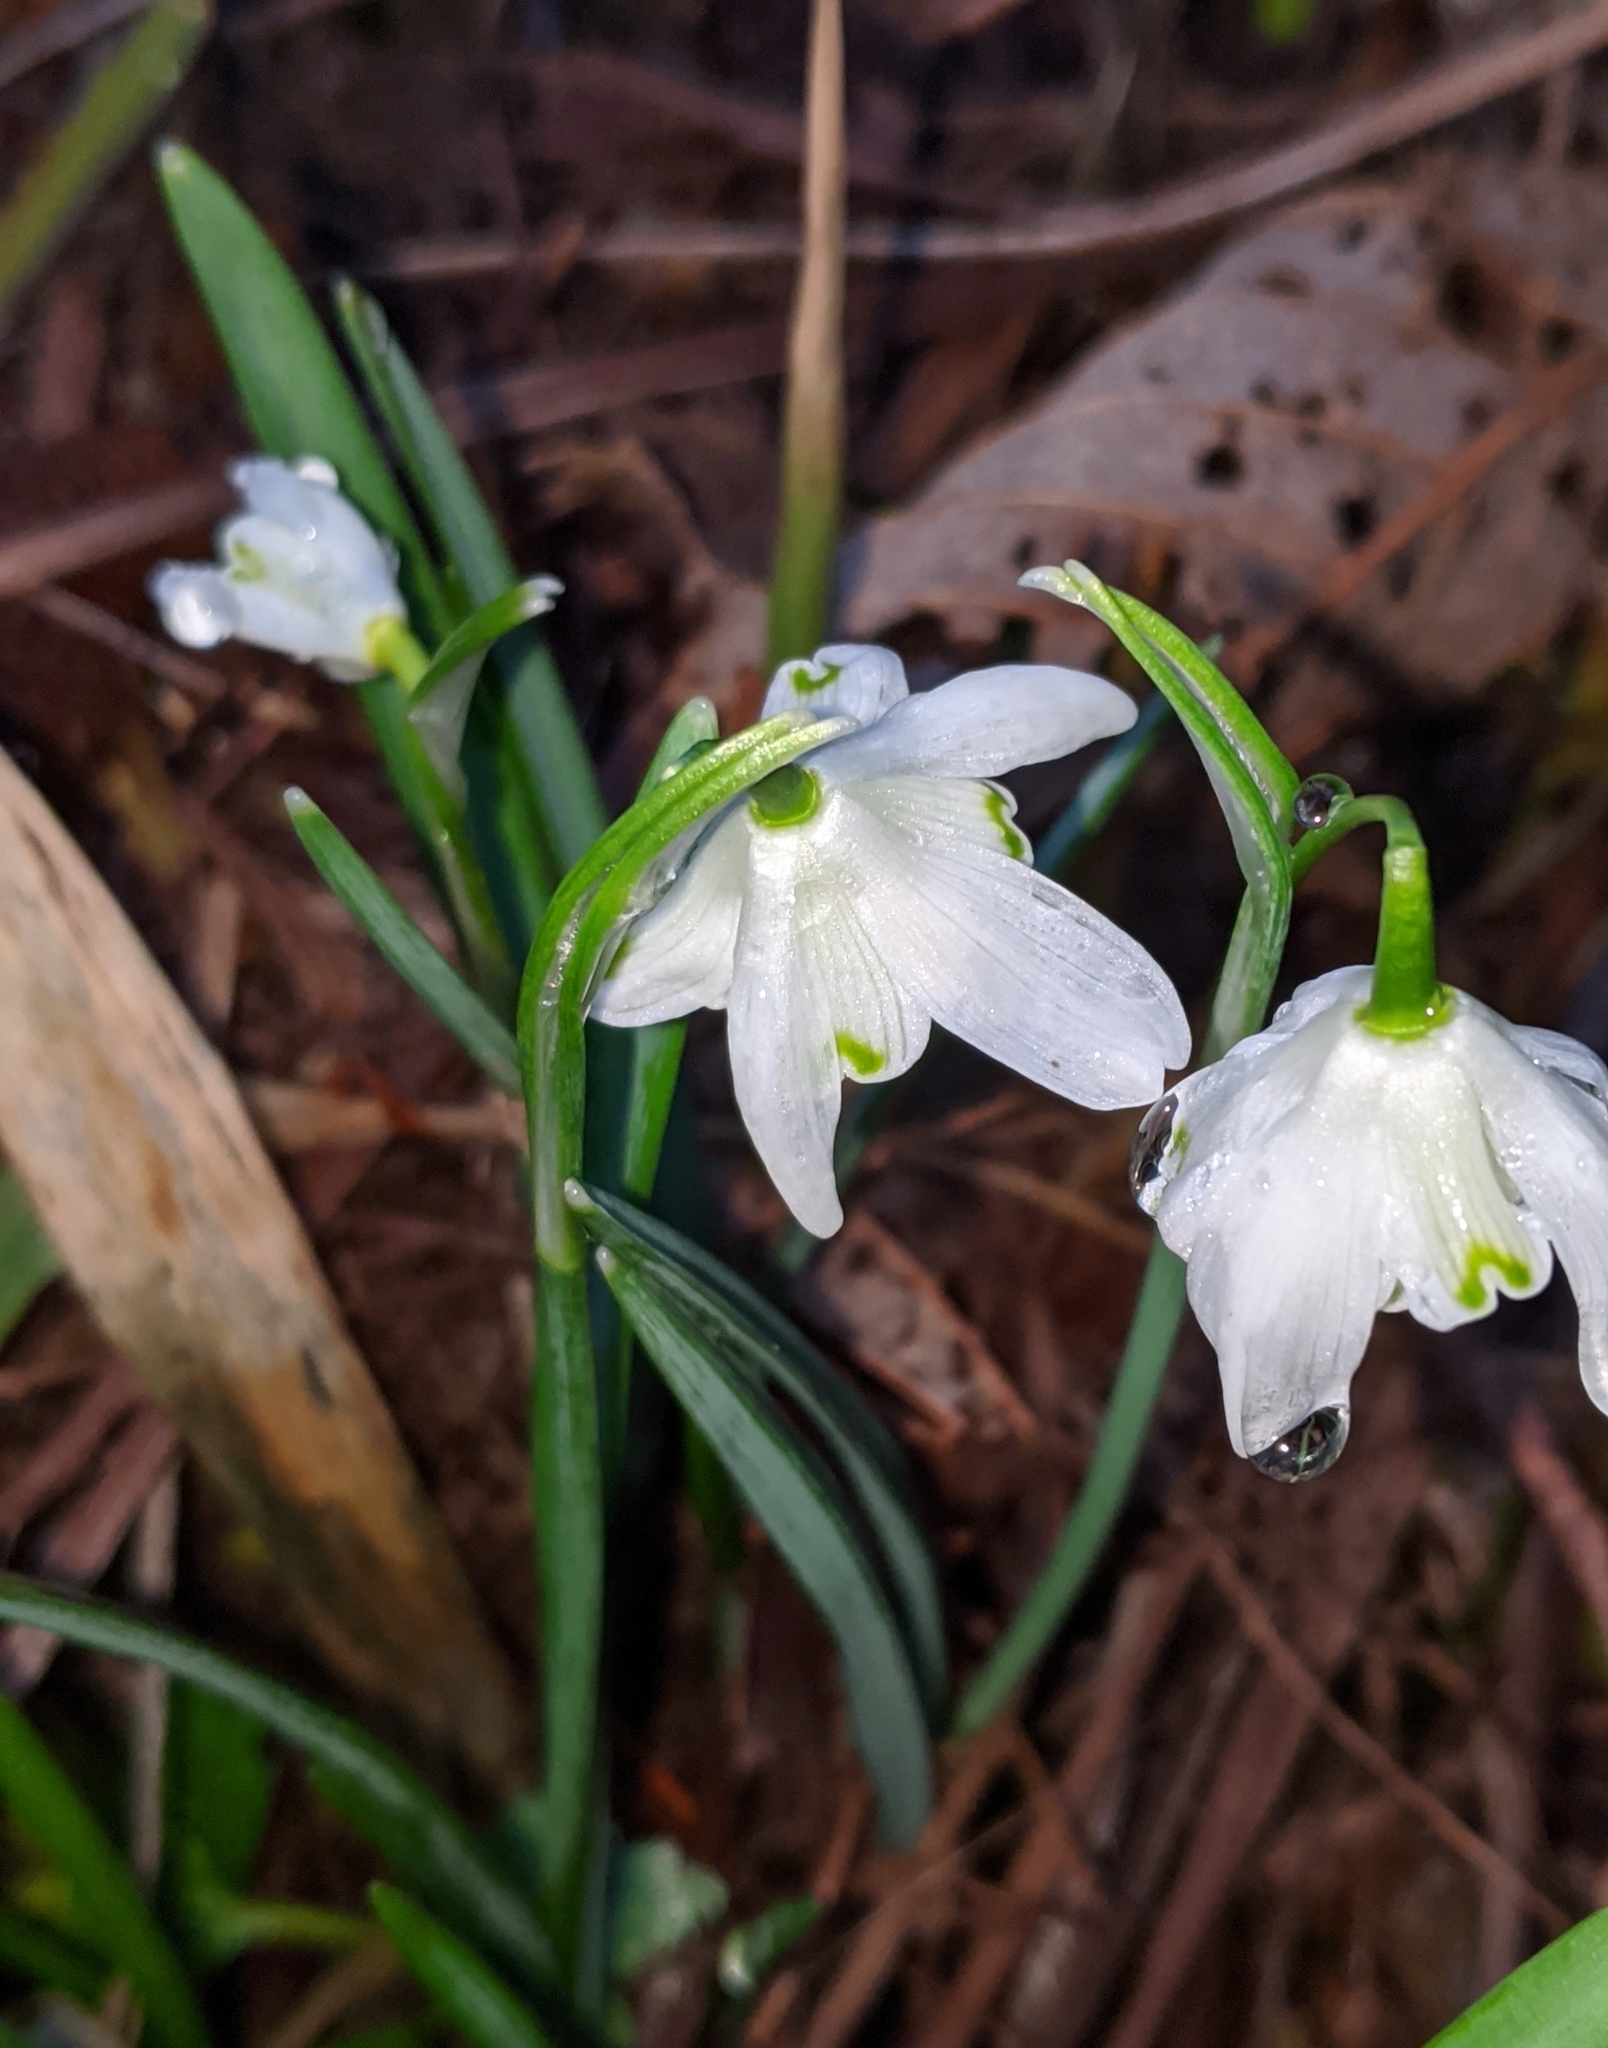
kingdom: Plantae
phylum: Tracheophyta
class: Liliopsida
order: Asparagales
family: Amaryllidaceae
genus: Galanthus
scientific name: Galanthus nivalis
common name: Snowdrop
